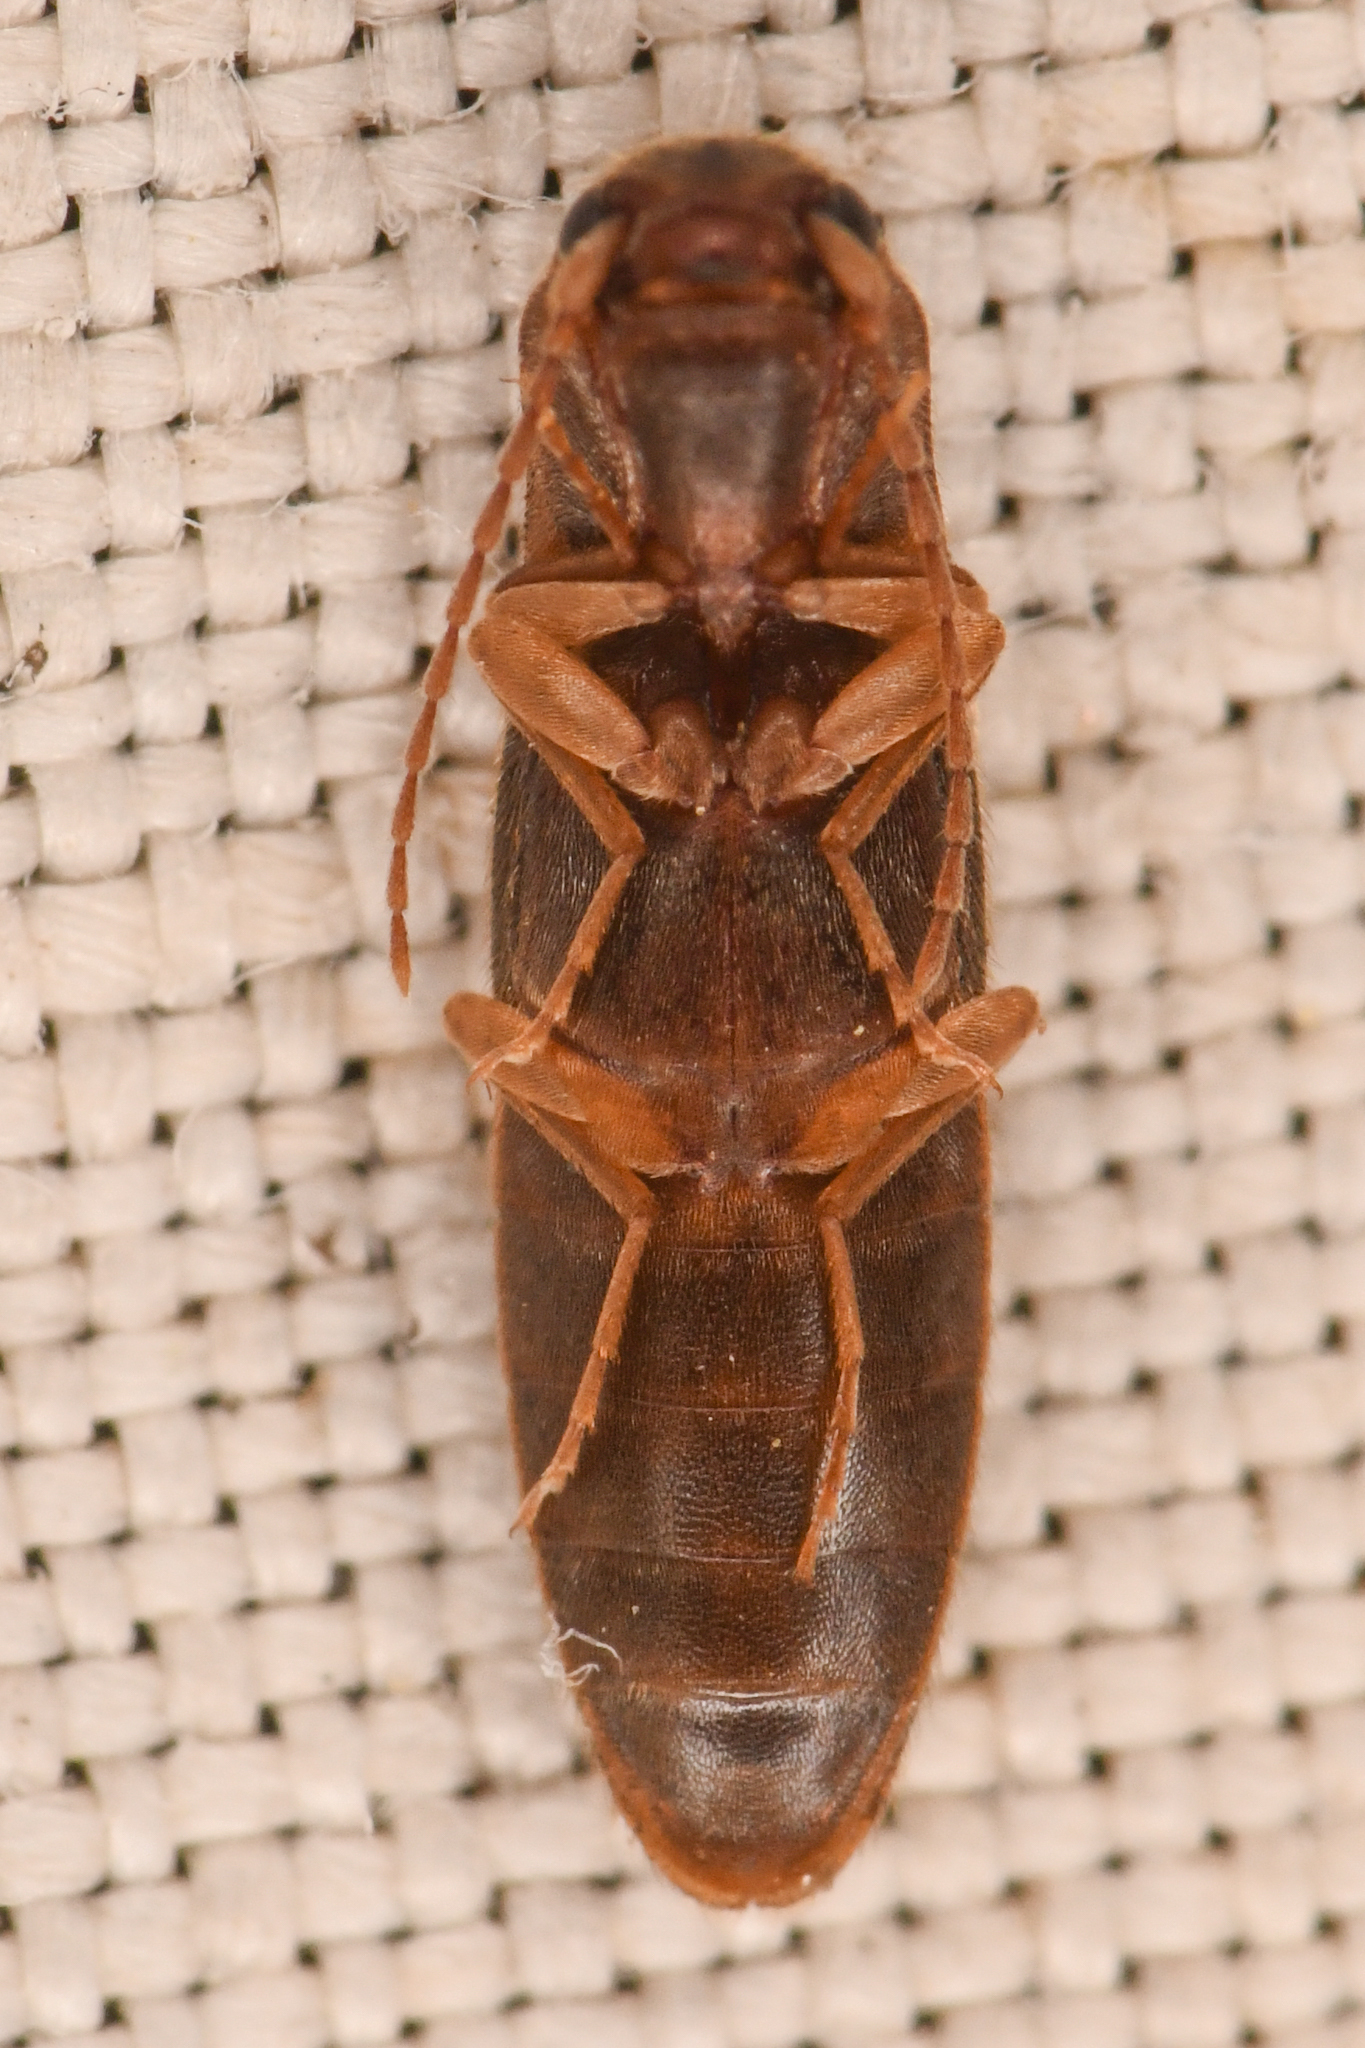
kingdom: Animalia
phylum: Arthropoda
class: Insecta
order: Coleoptera
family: Elateridae
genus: Dalopius
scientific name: Dalopius
